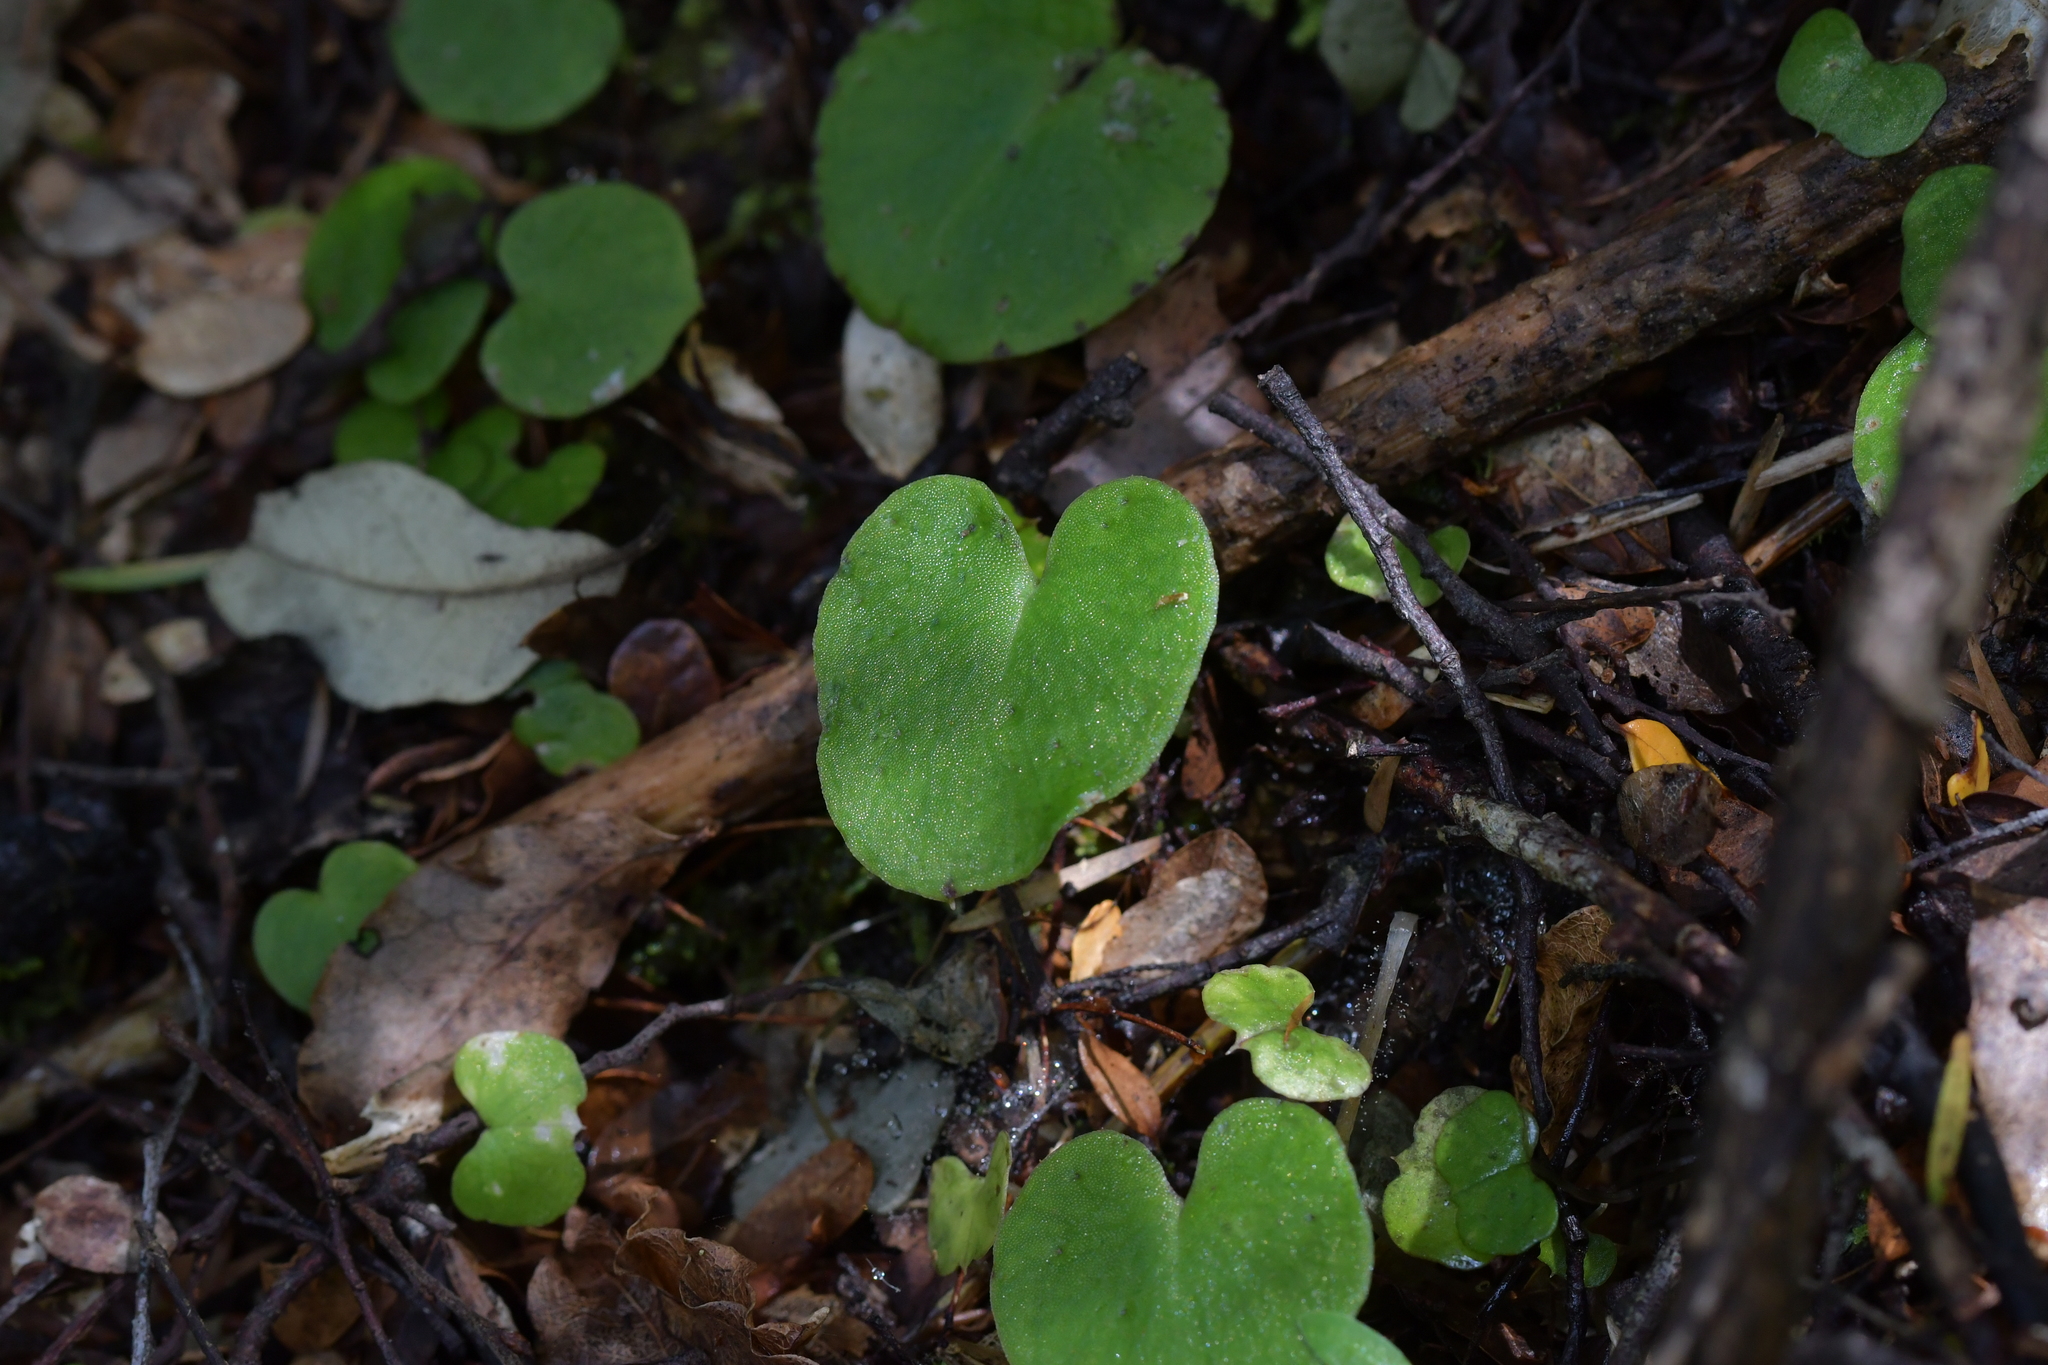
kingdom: Plantae
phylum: Tracheophyta
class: Liliopsida
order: Asparagales
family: Orchidaceae
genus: Corybas
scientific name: Corybas macranthus
